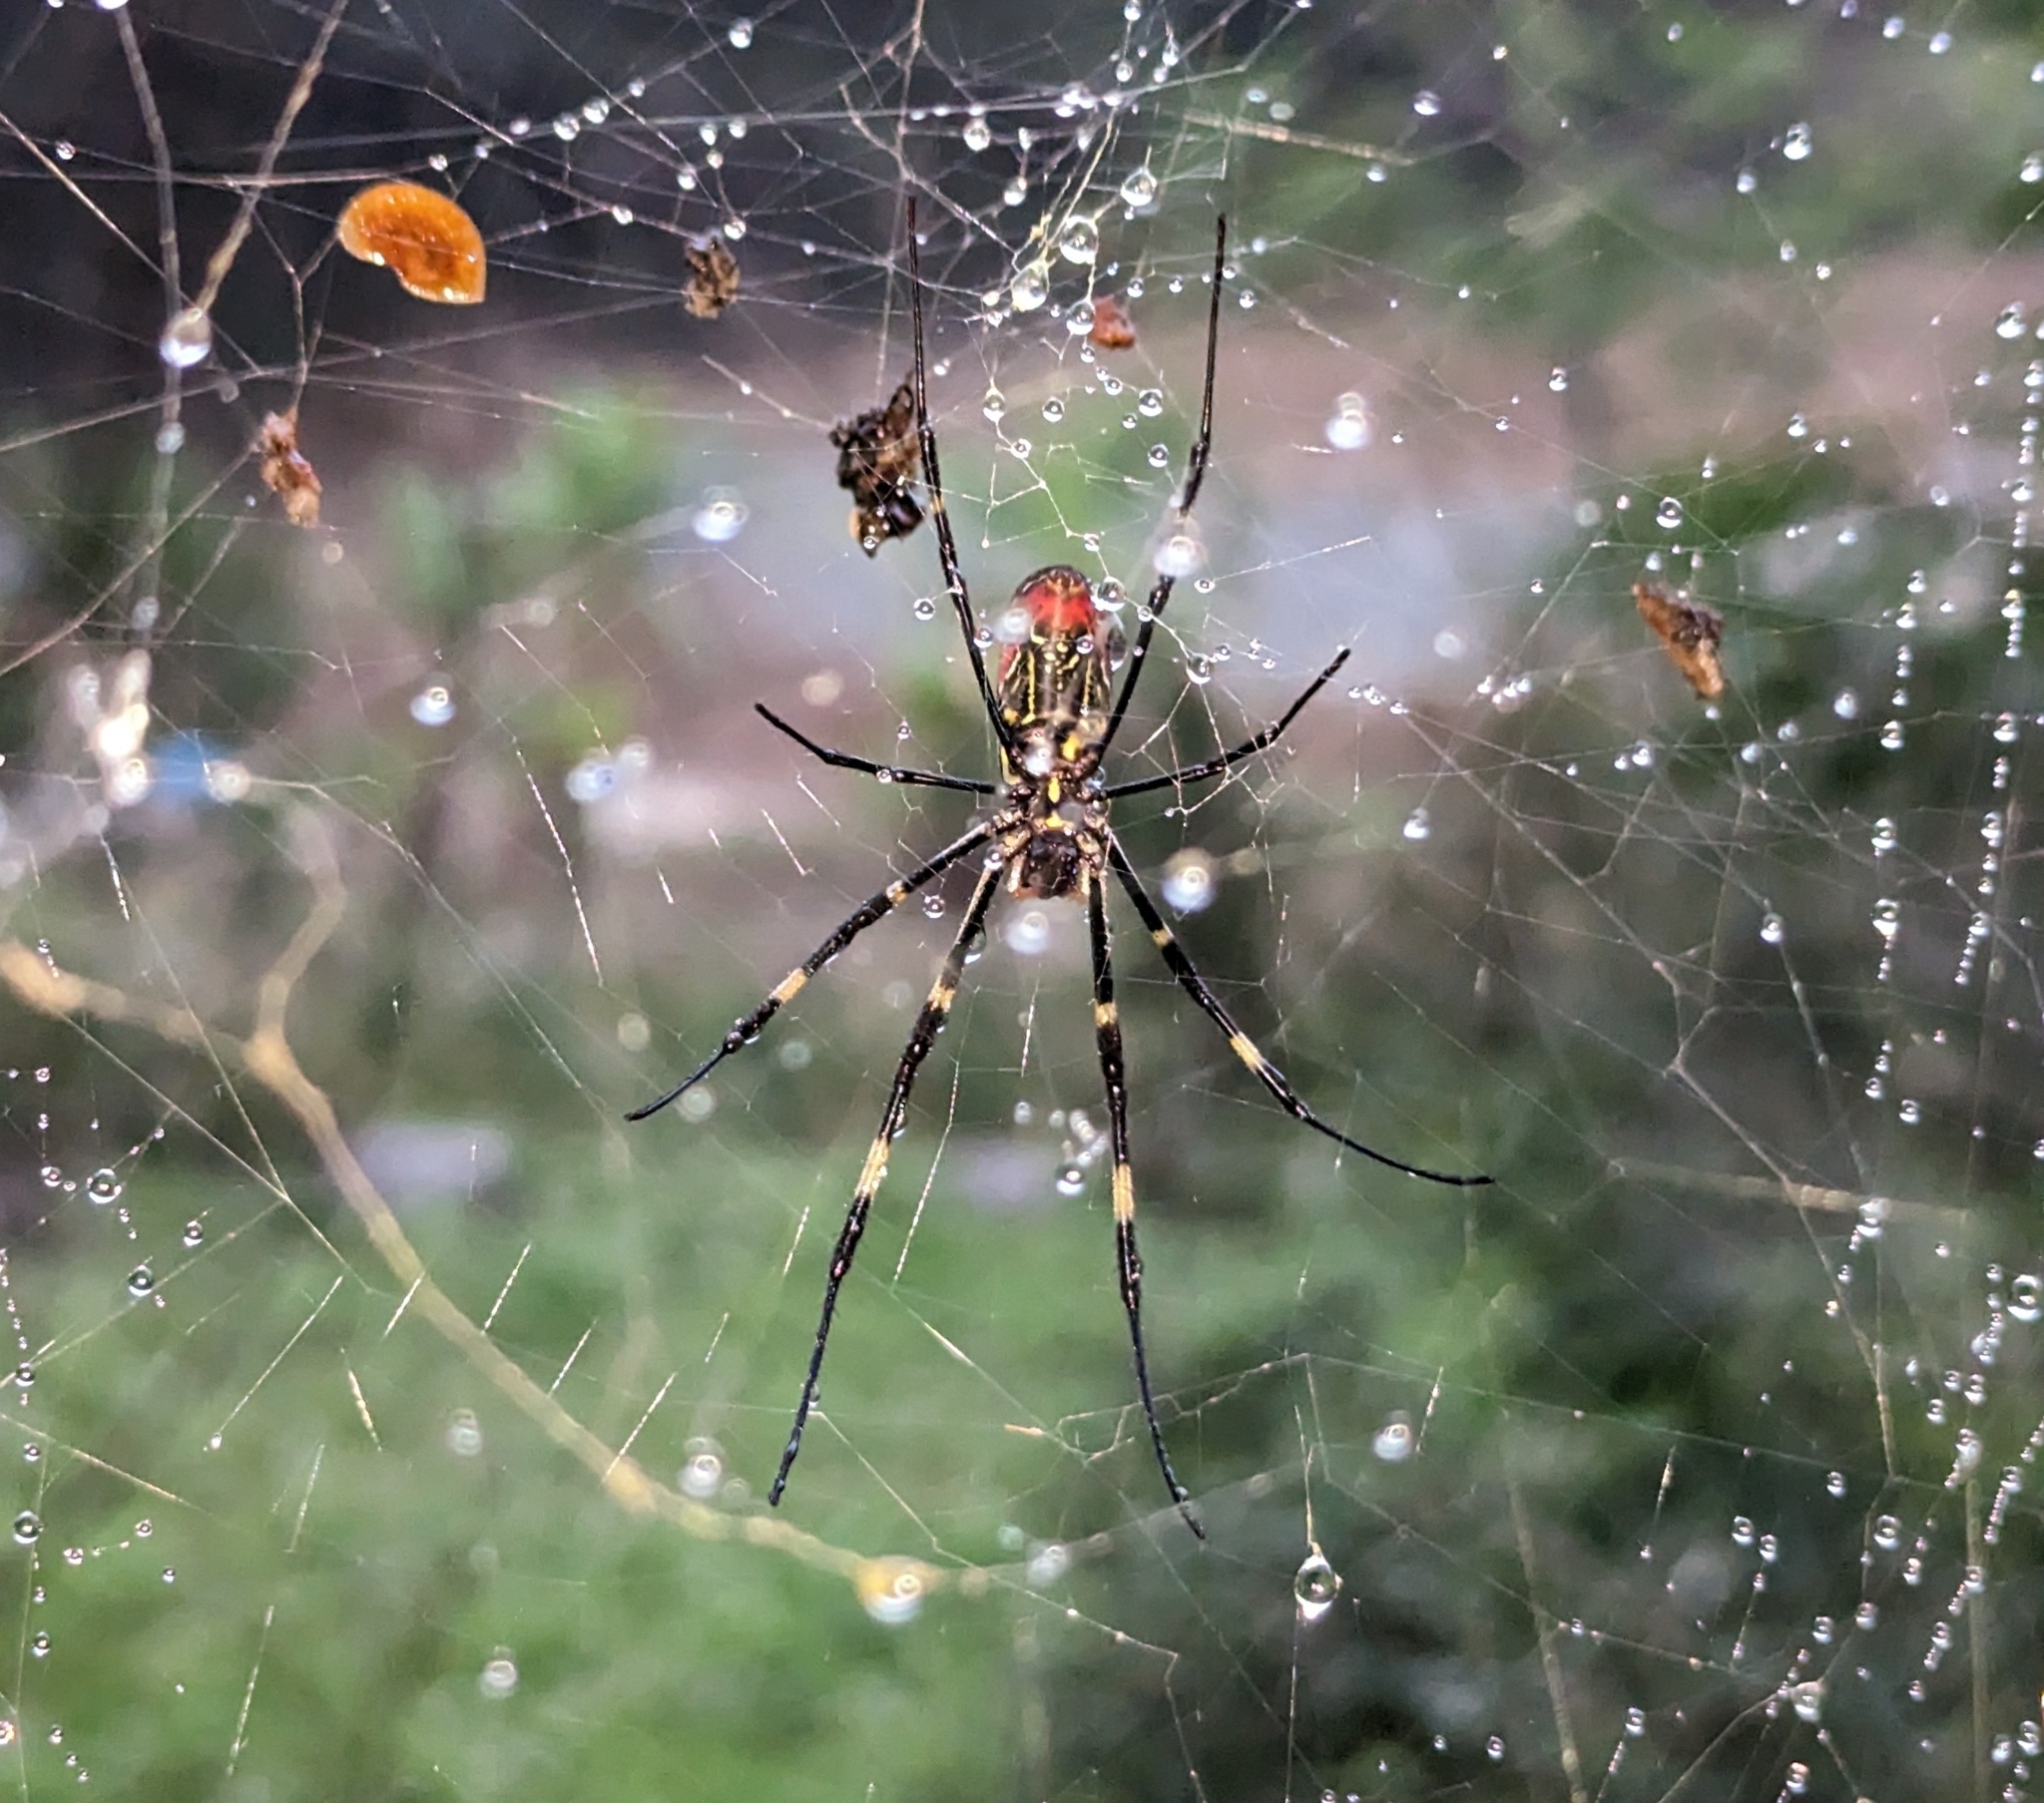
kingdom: Animalia
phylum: Arthropoda
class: Arachnida
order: Araneae
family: Araneidae
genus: Trichonephila
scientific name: Trichonephila clavata
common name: Jorō spider
